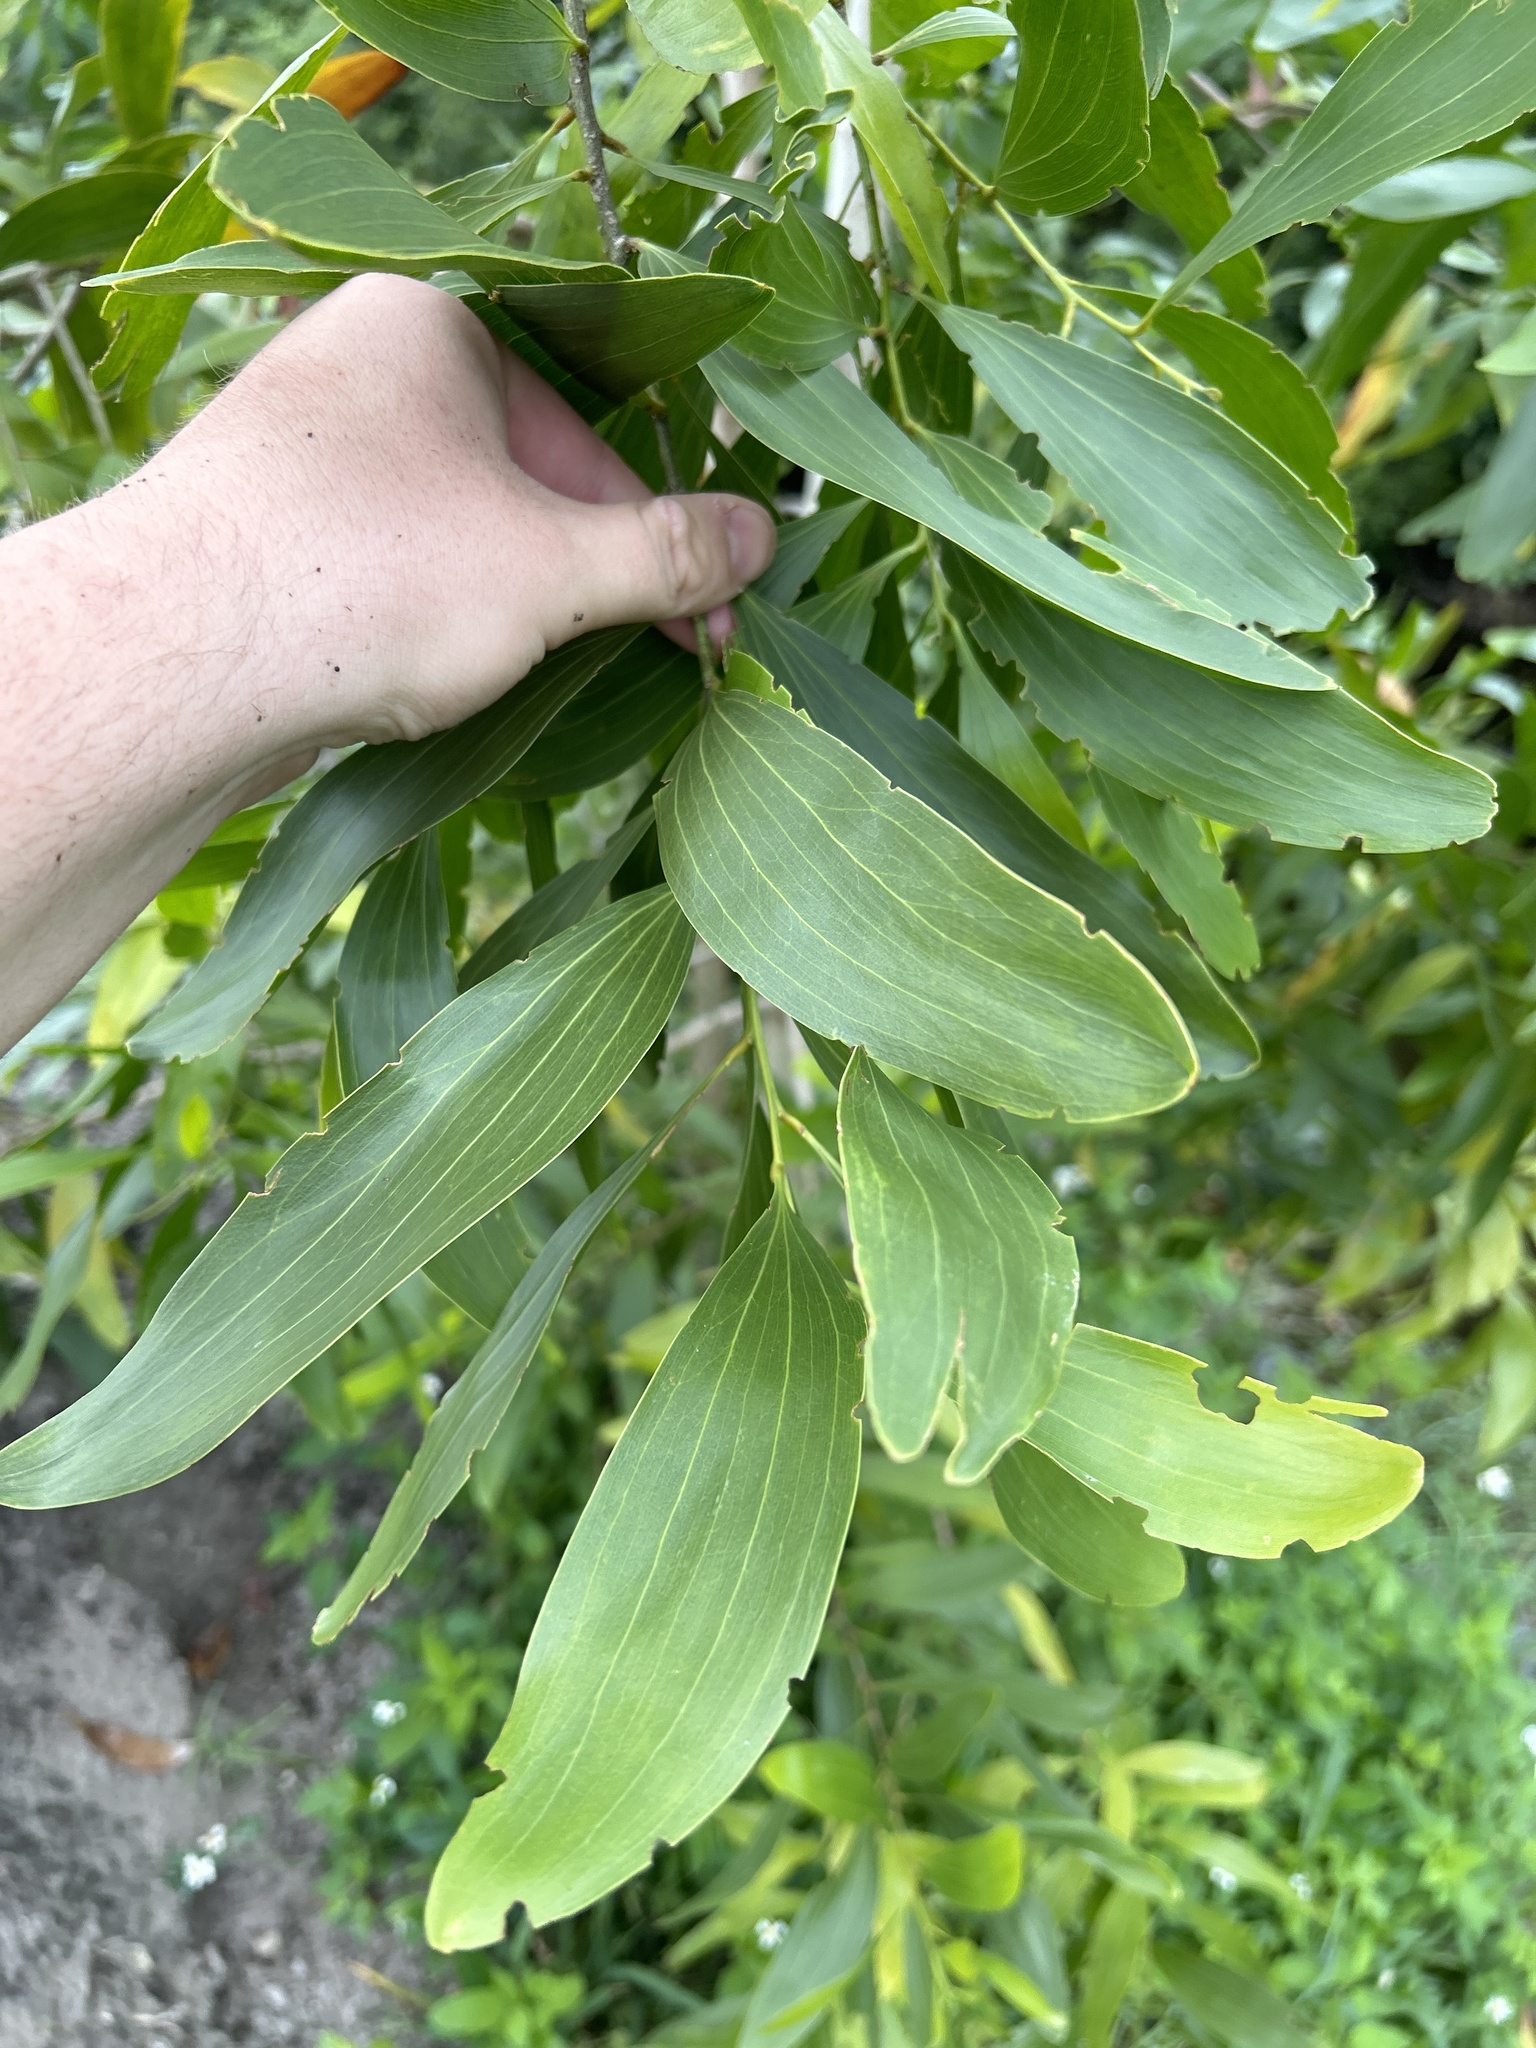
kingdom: Plantae
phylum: Tracheophyta
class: Magnoliopsida
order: Fabales
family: Fabaceae
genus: Acacia
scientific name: Acacia auriculiformis
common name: Earleaf acacia
